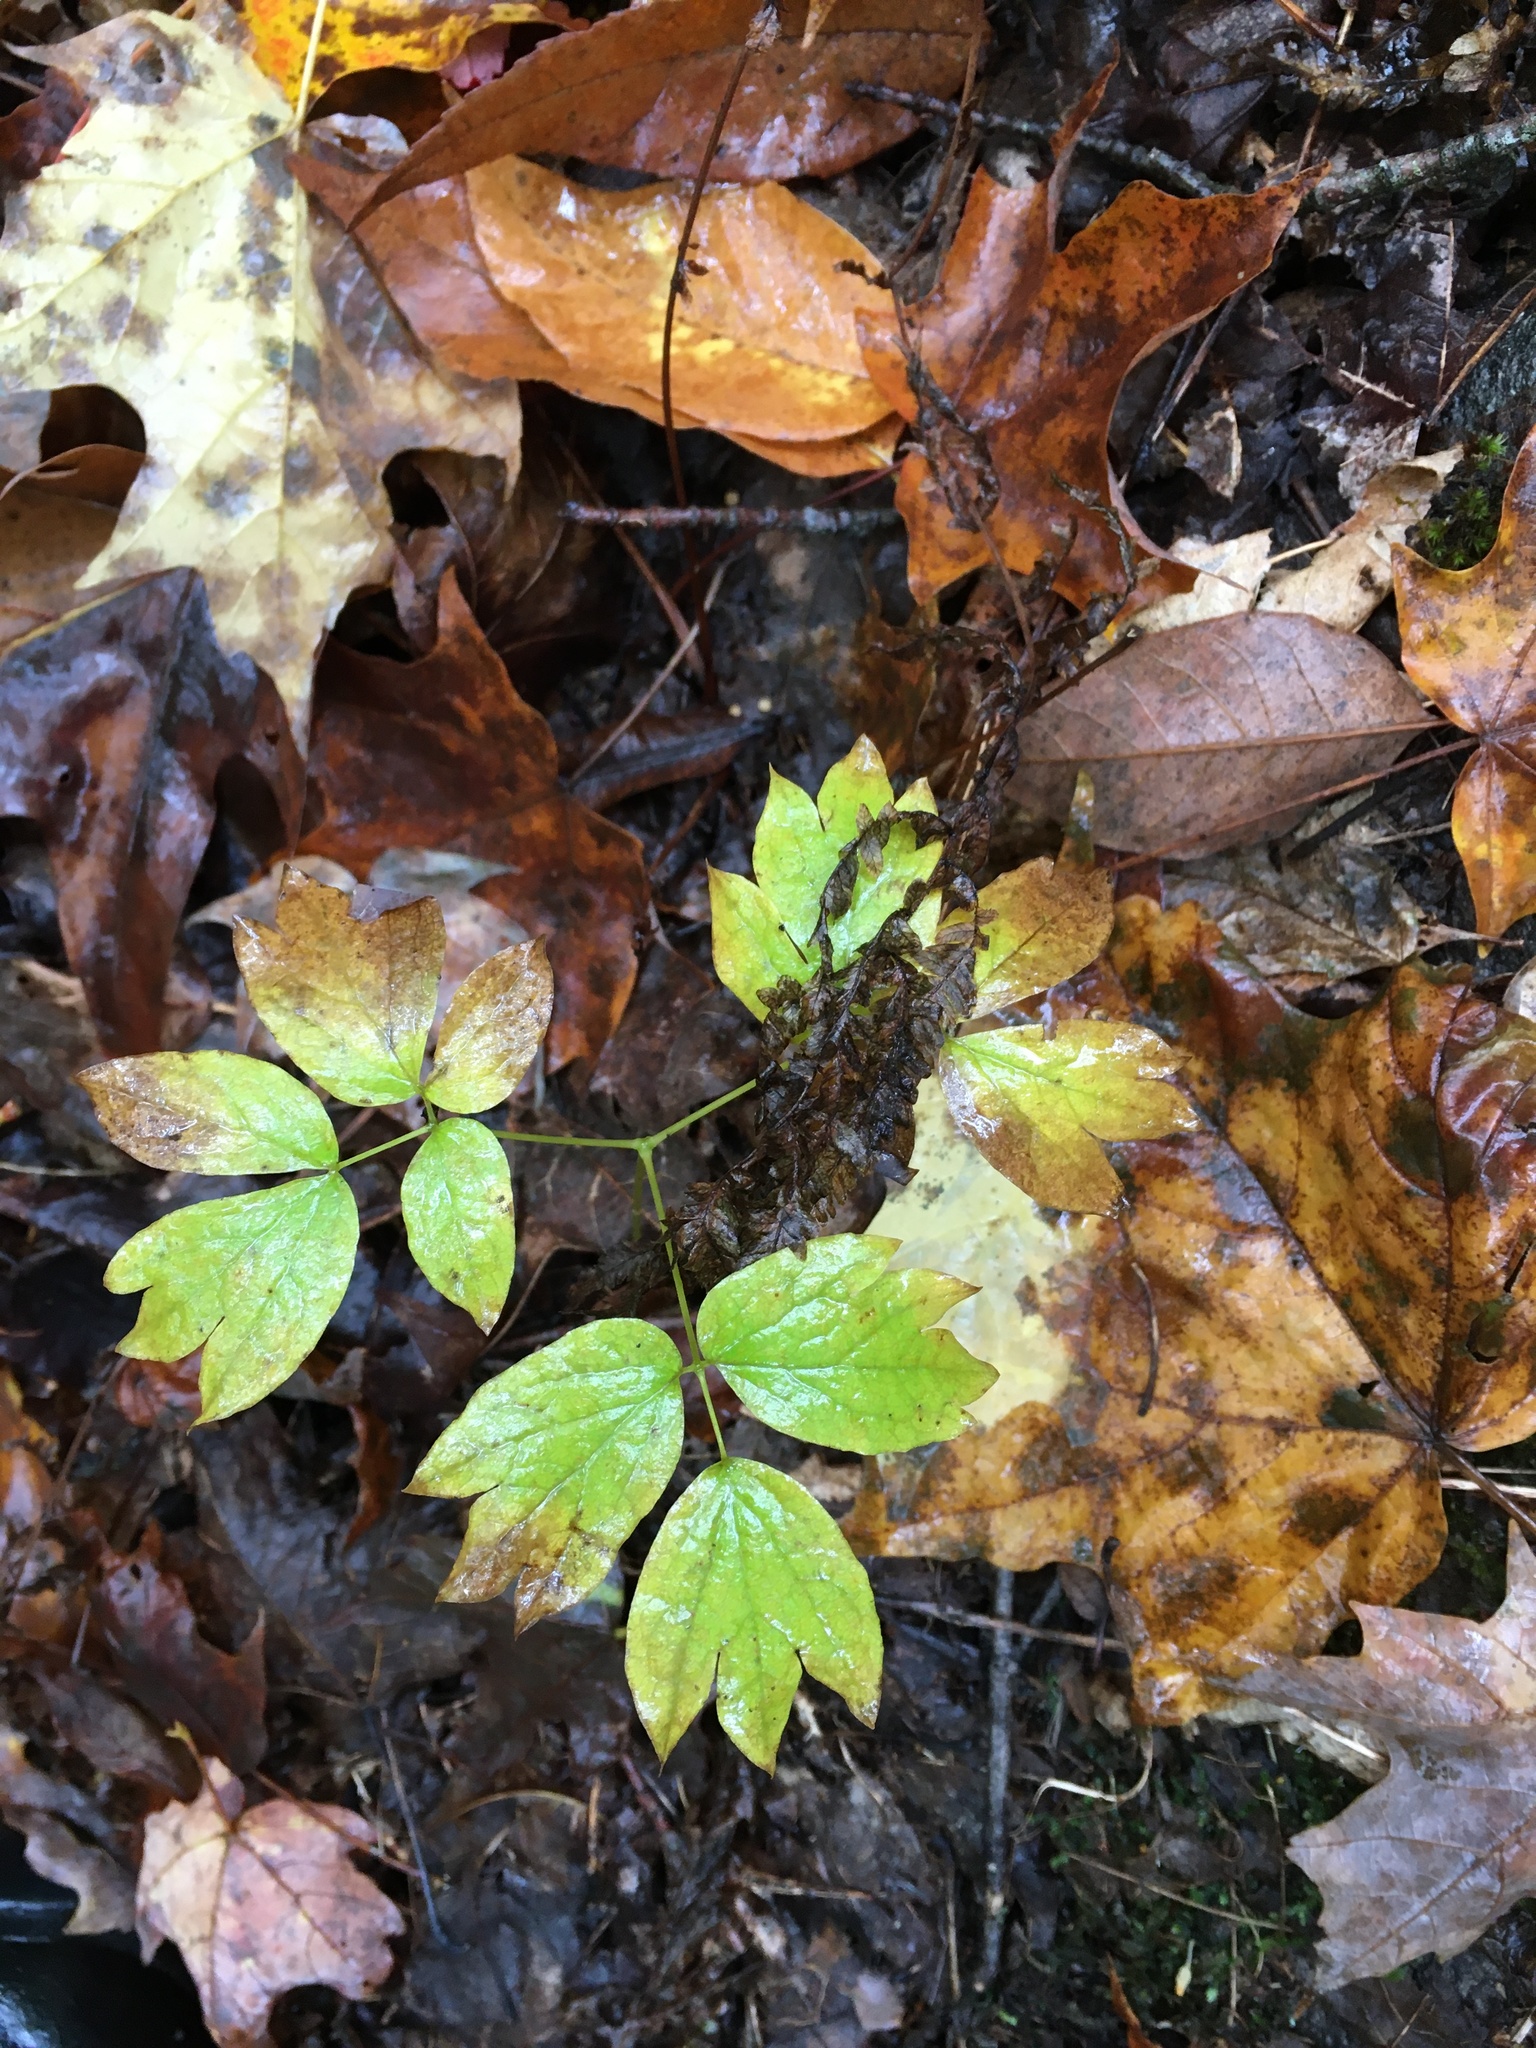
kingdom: Plantae
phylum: Tracheophyta
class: Magnoliopsida
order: Ranunculales
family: Berberidaceae
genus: Caulophyllum
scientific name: Caulophyllum thalictroides
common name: Blue cohosh
